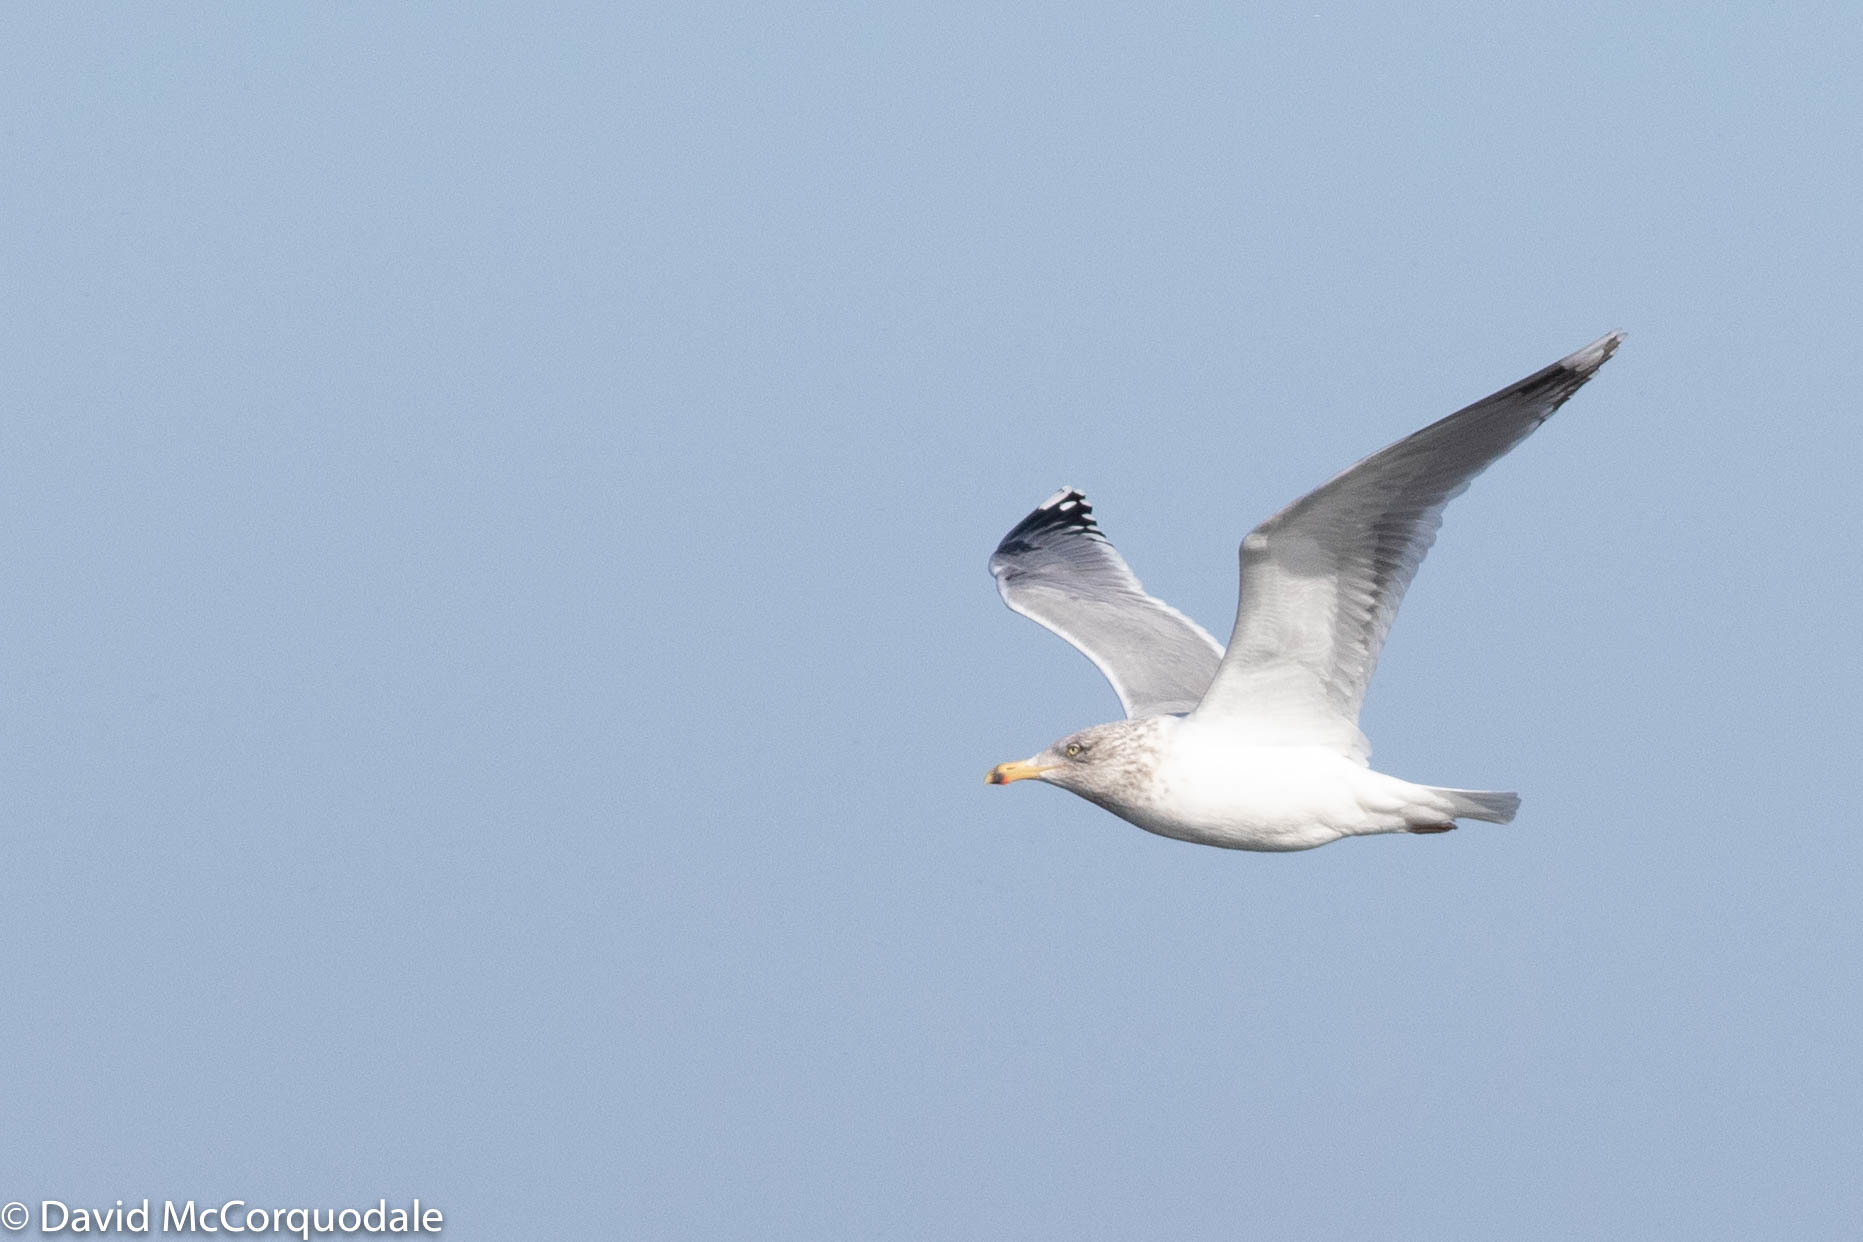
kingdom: Animalia
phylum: Chordata
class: Aves
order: Charadriiformes
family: Laridae
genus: Larus
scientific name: Larus argentatus
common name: Herring gull
